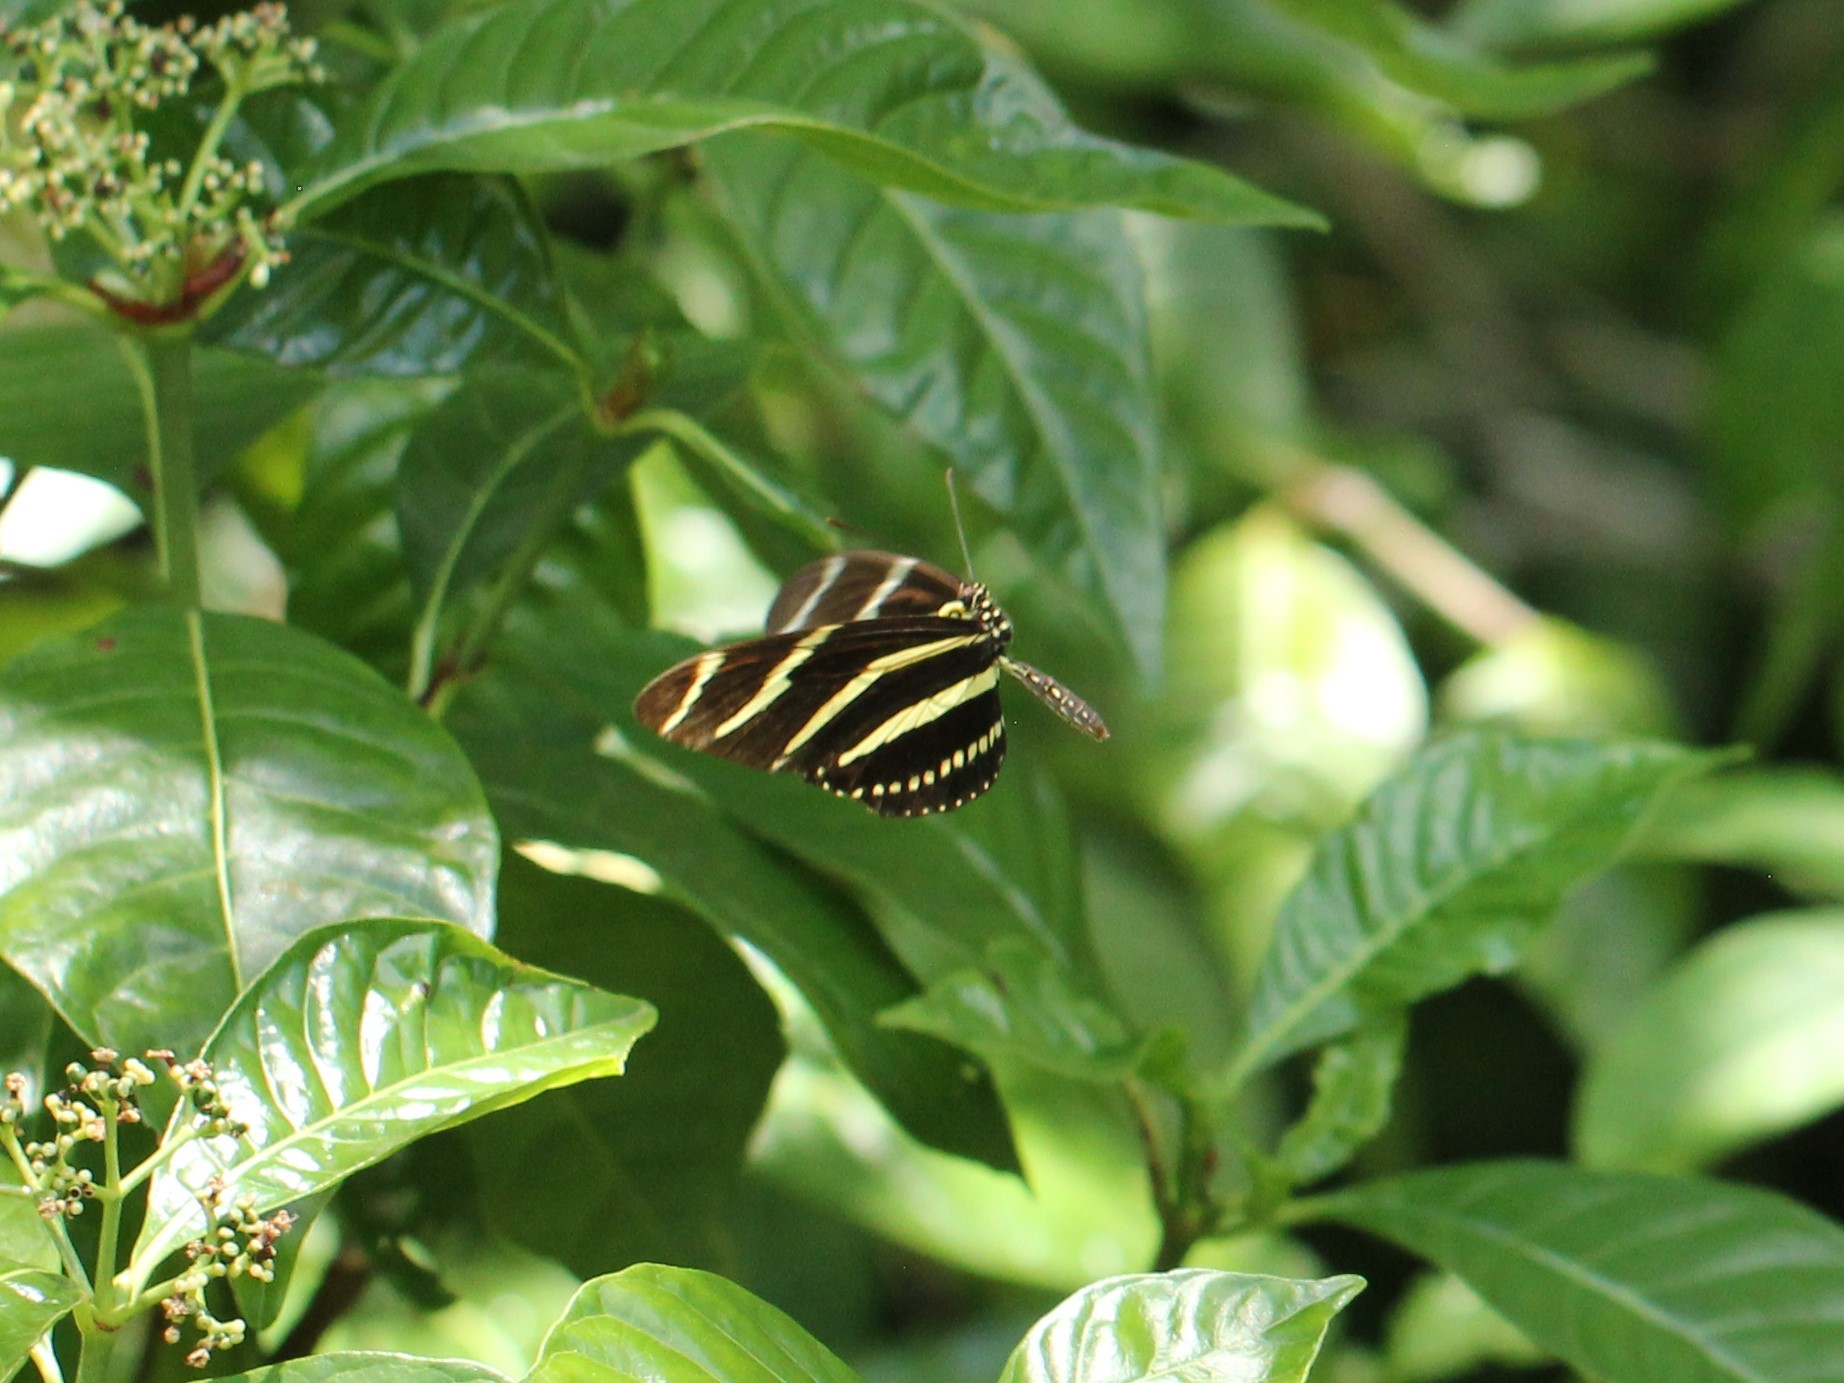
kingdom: Animalia
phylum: Arthropoda
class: Insecta
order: Lepidoptera
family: Nymphalidae
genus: Heliconius
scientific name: Heliconius charithonia
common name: Zebra long wing
